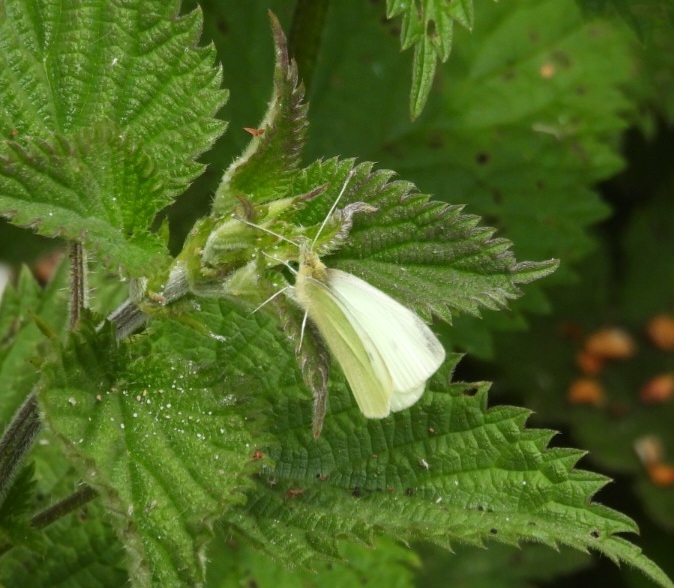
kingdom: Animalia
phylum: Arthropoda
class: Insecta
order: Lepidoptera
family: Pieridae
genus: Pieris
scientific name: Pieris rapae
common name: Small white
